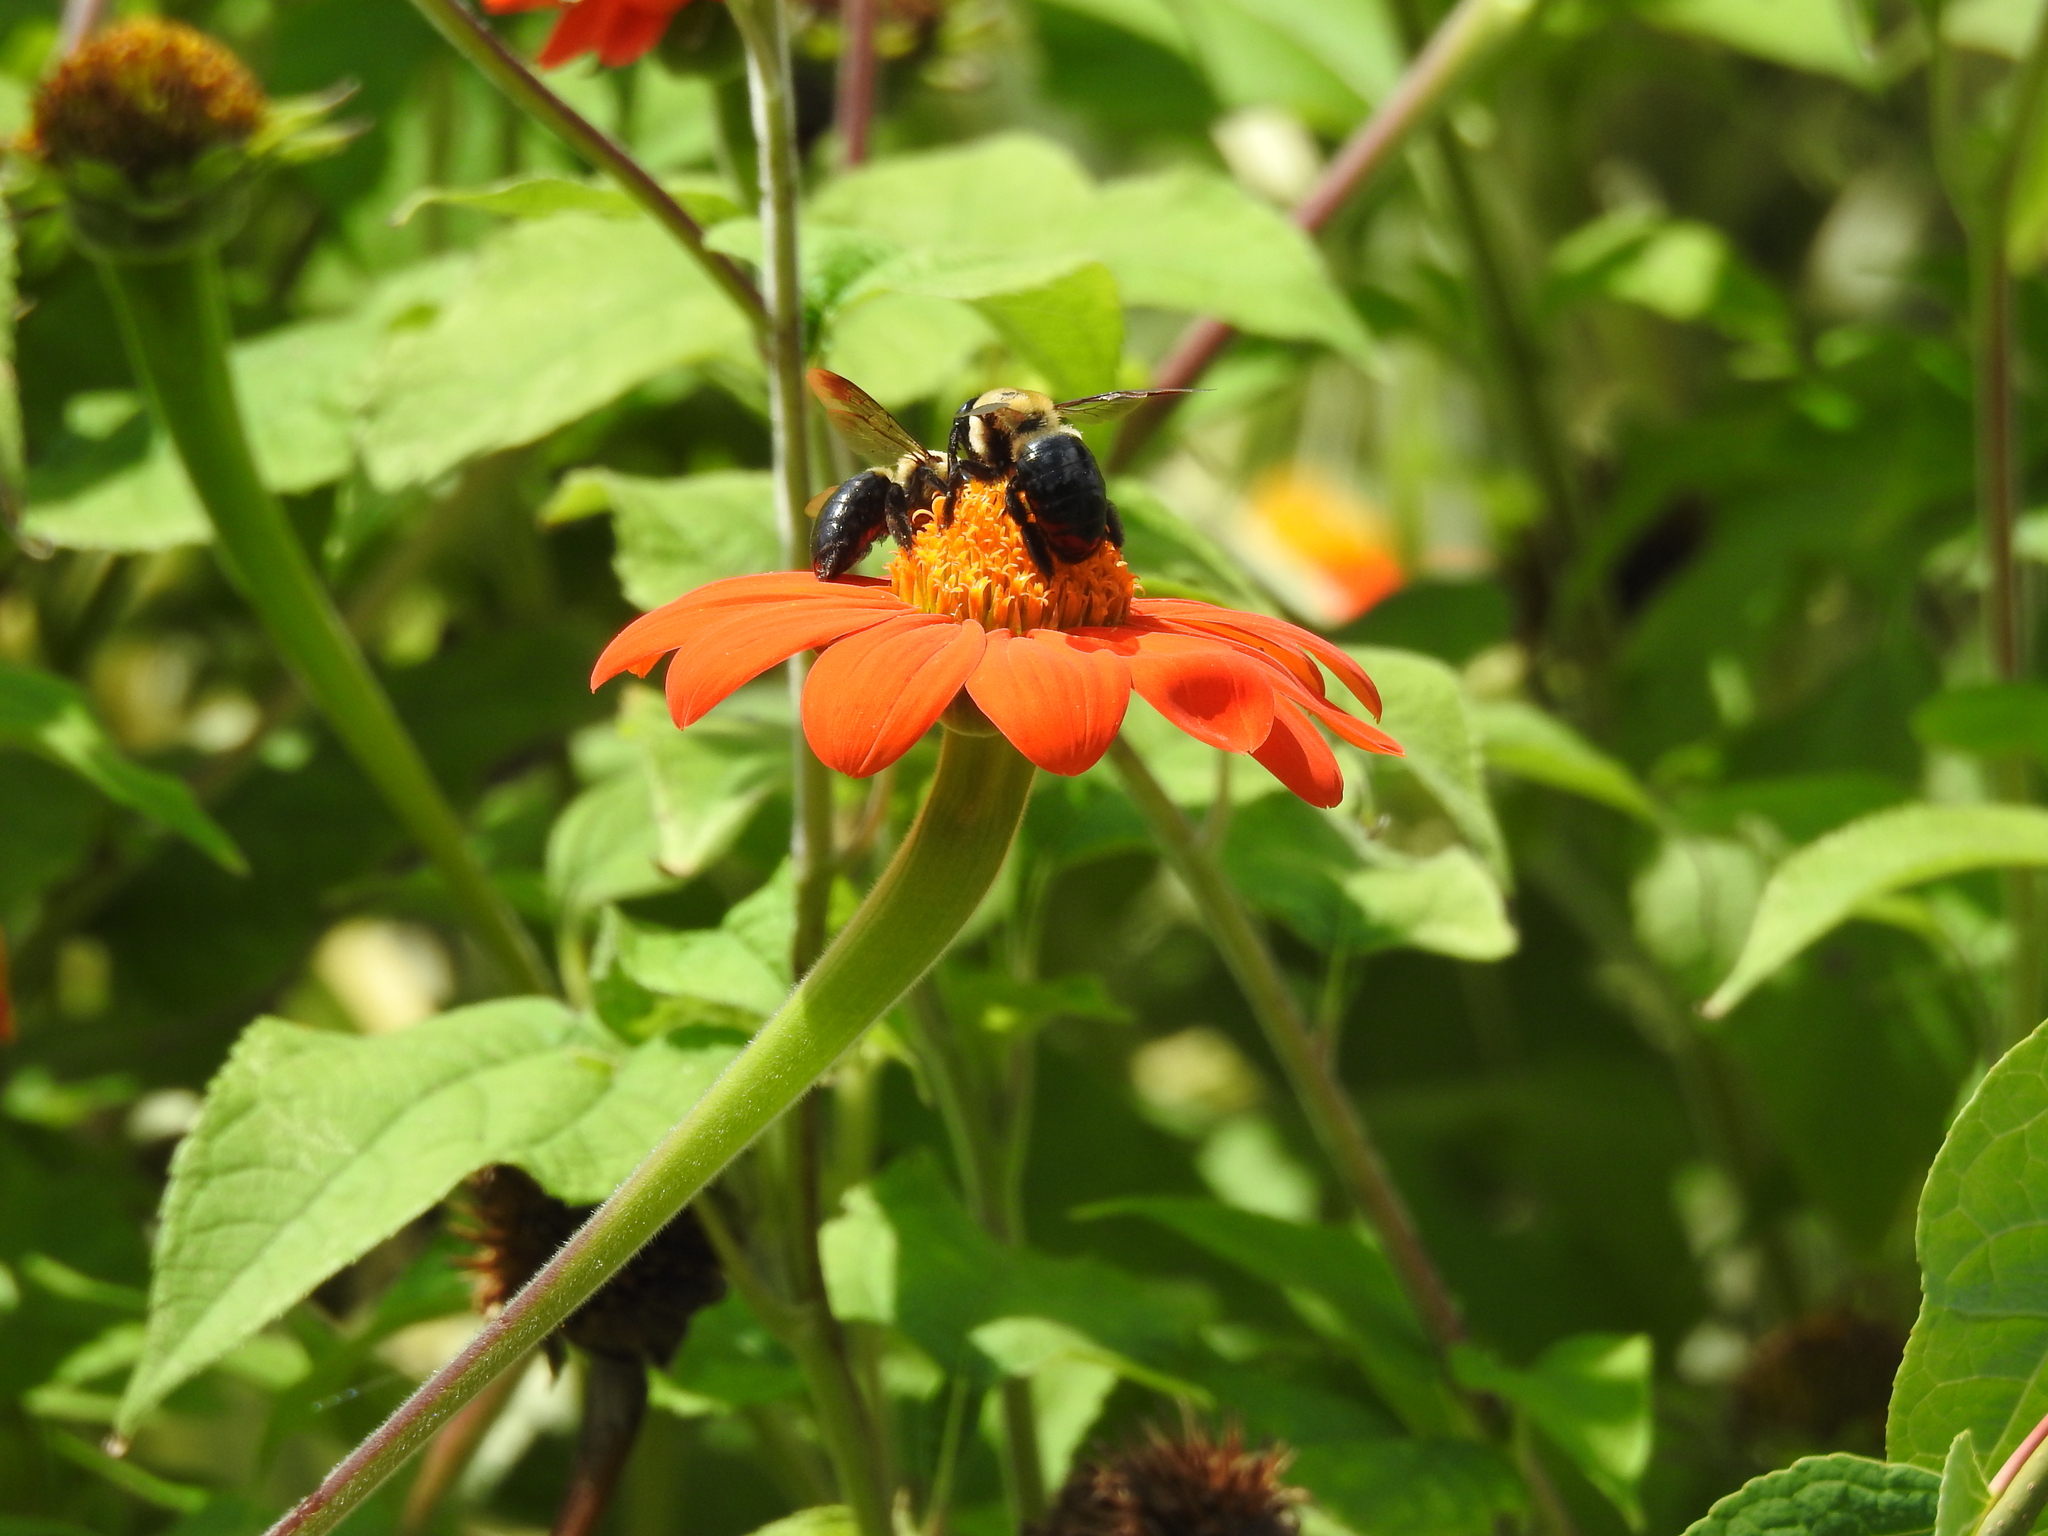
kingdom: Animalia
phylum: Arthropoda
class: Insecta
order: Hymenoptera
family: Apidae
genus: Xylocopa
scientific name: Xylocopa virginica
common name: Carpenter bee
